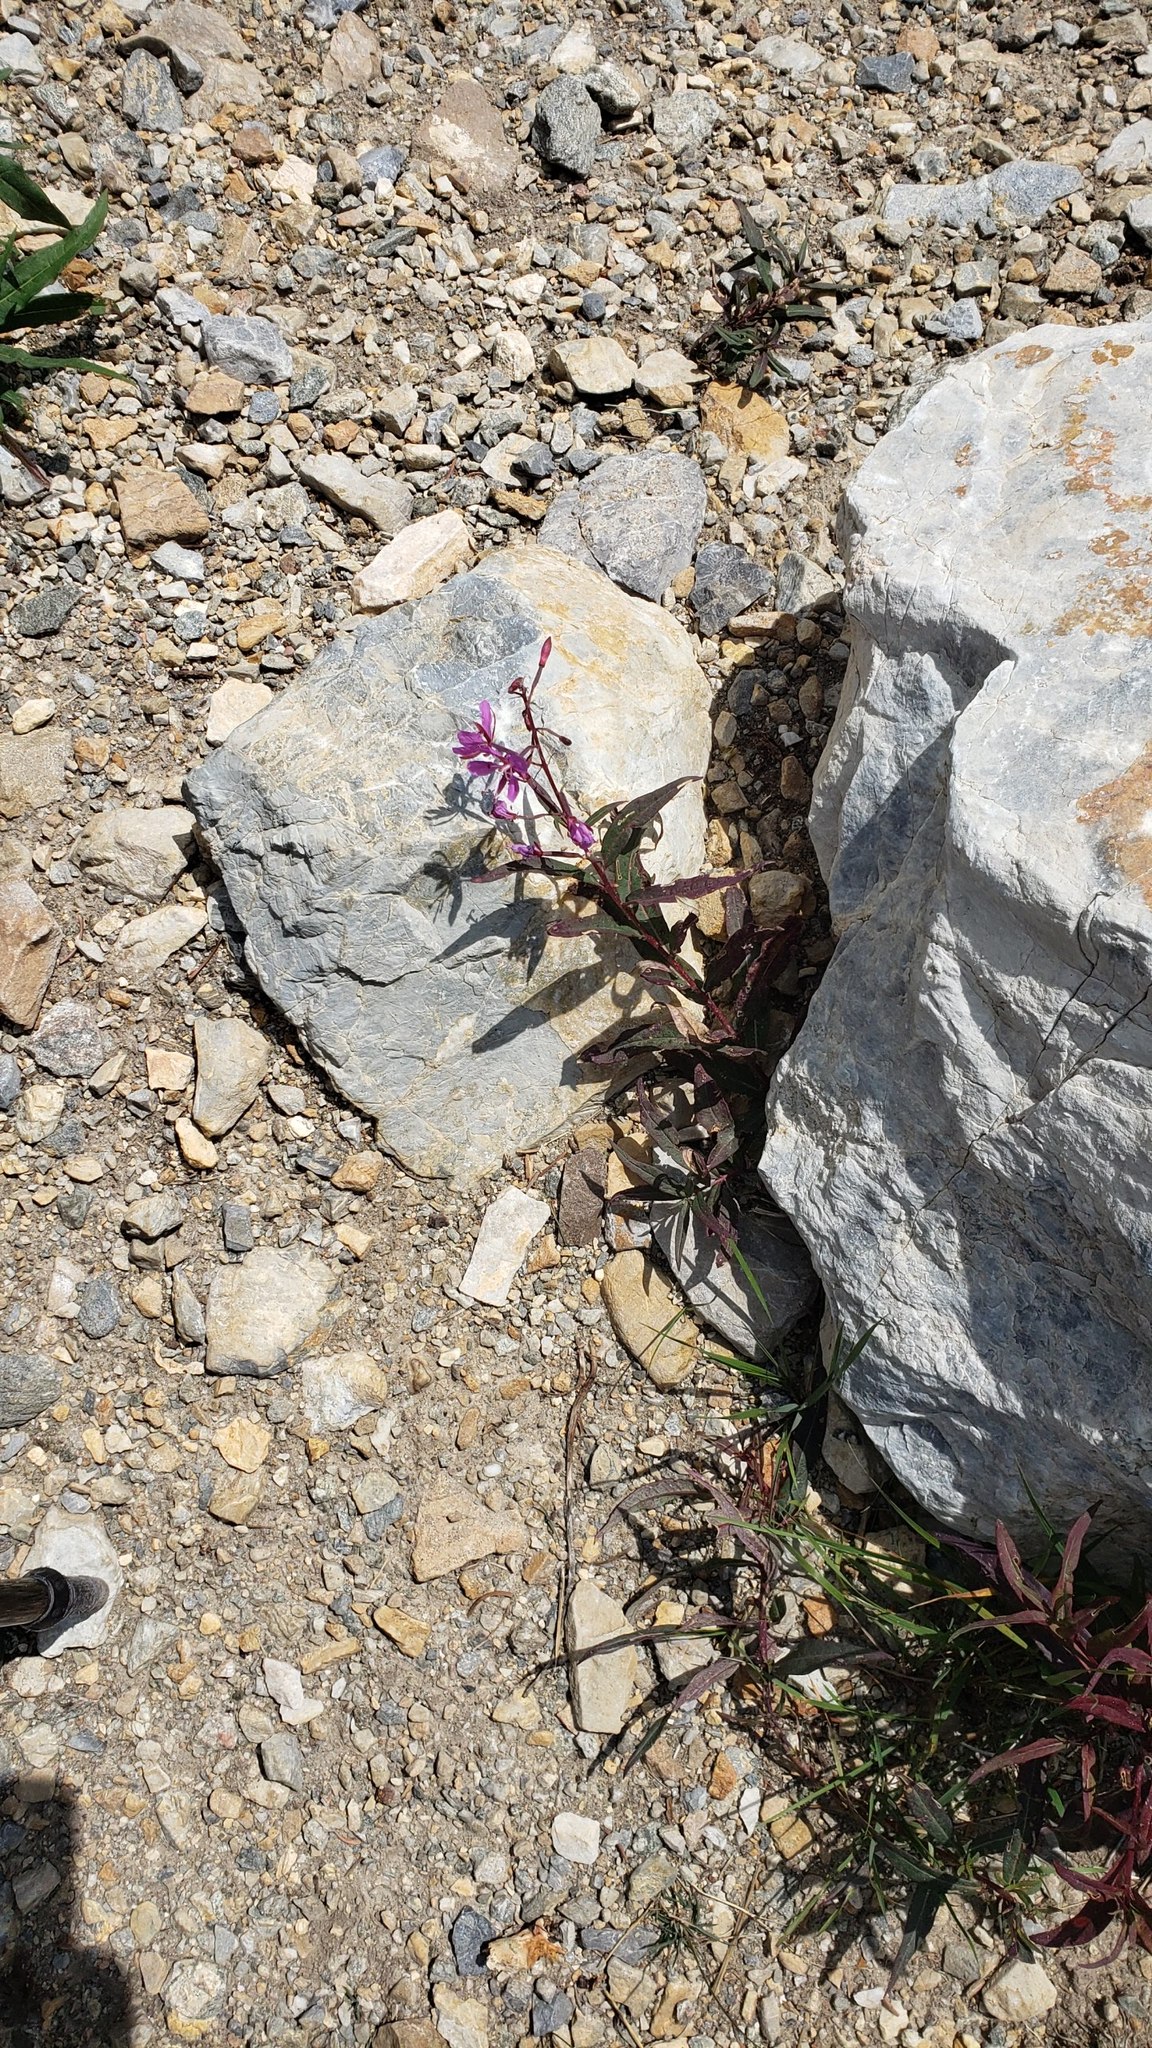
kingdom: Plantae
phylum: Tracheophyta
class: Magnoliopsida
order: Myrtales
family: Onagraceae
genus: Chamaenerion
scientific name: Chamaenerion angustifolium
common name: Fireweed
